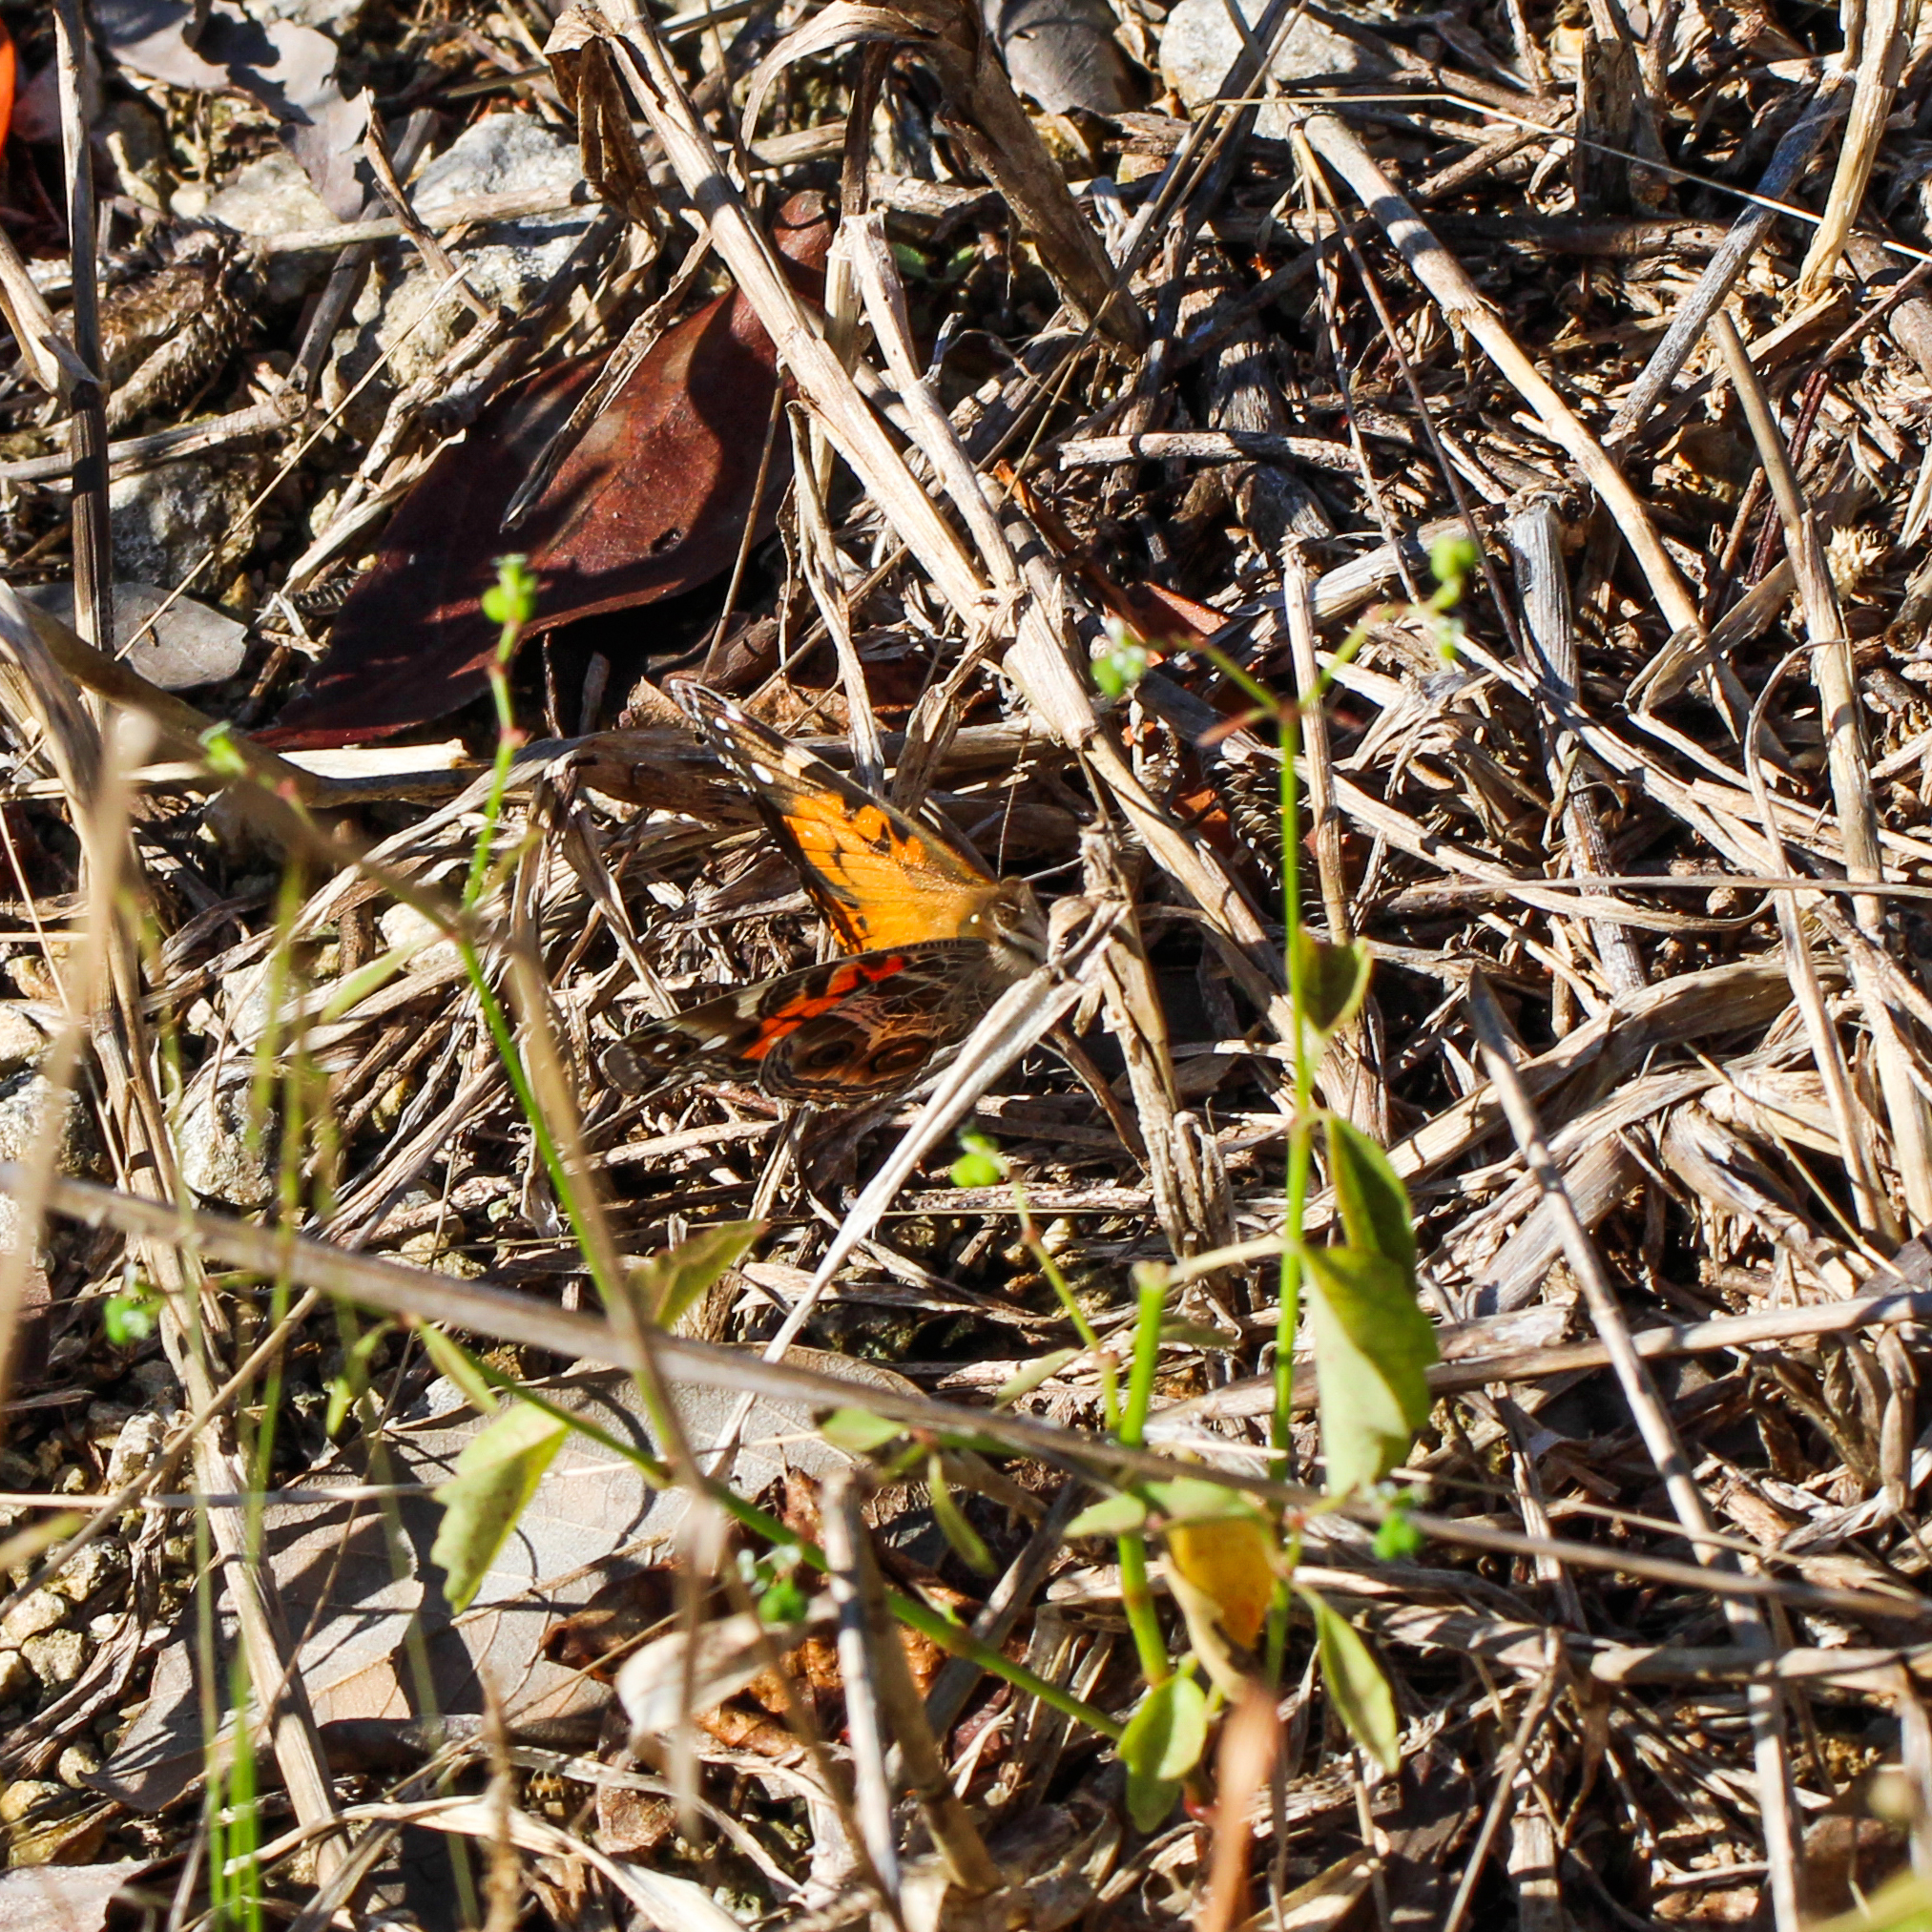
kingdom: Animalia
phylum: Arthropoda
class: Insecta
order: Lepidoptera
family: Nymphalidae
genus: Vanessa
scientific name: Vanessa virginiensis
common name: American lady
